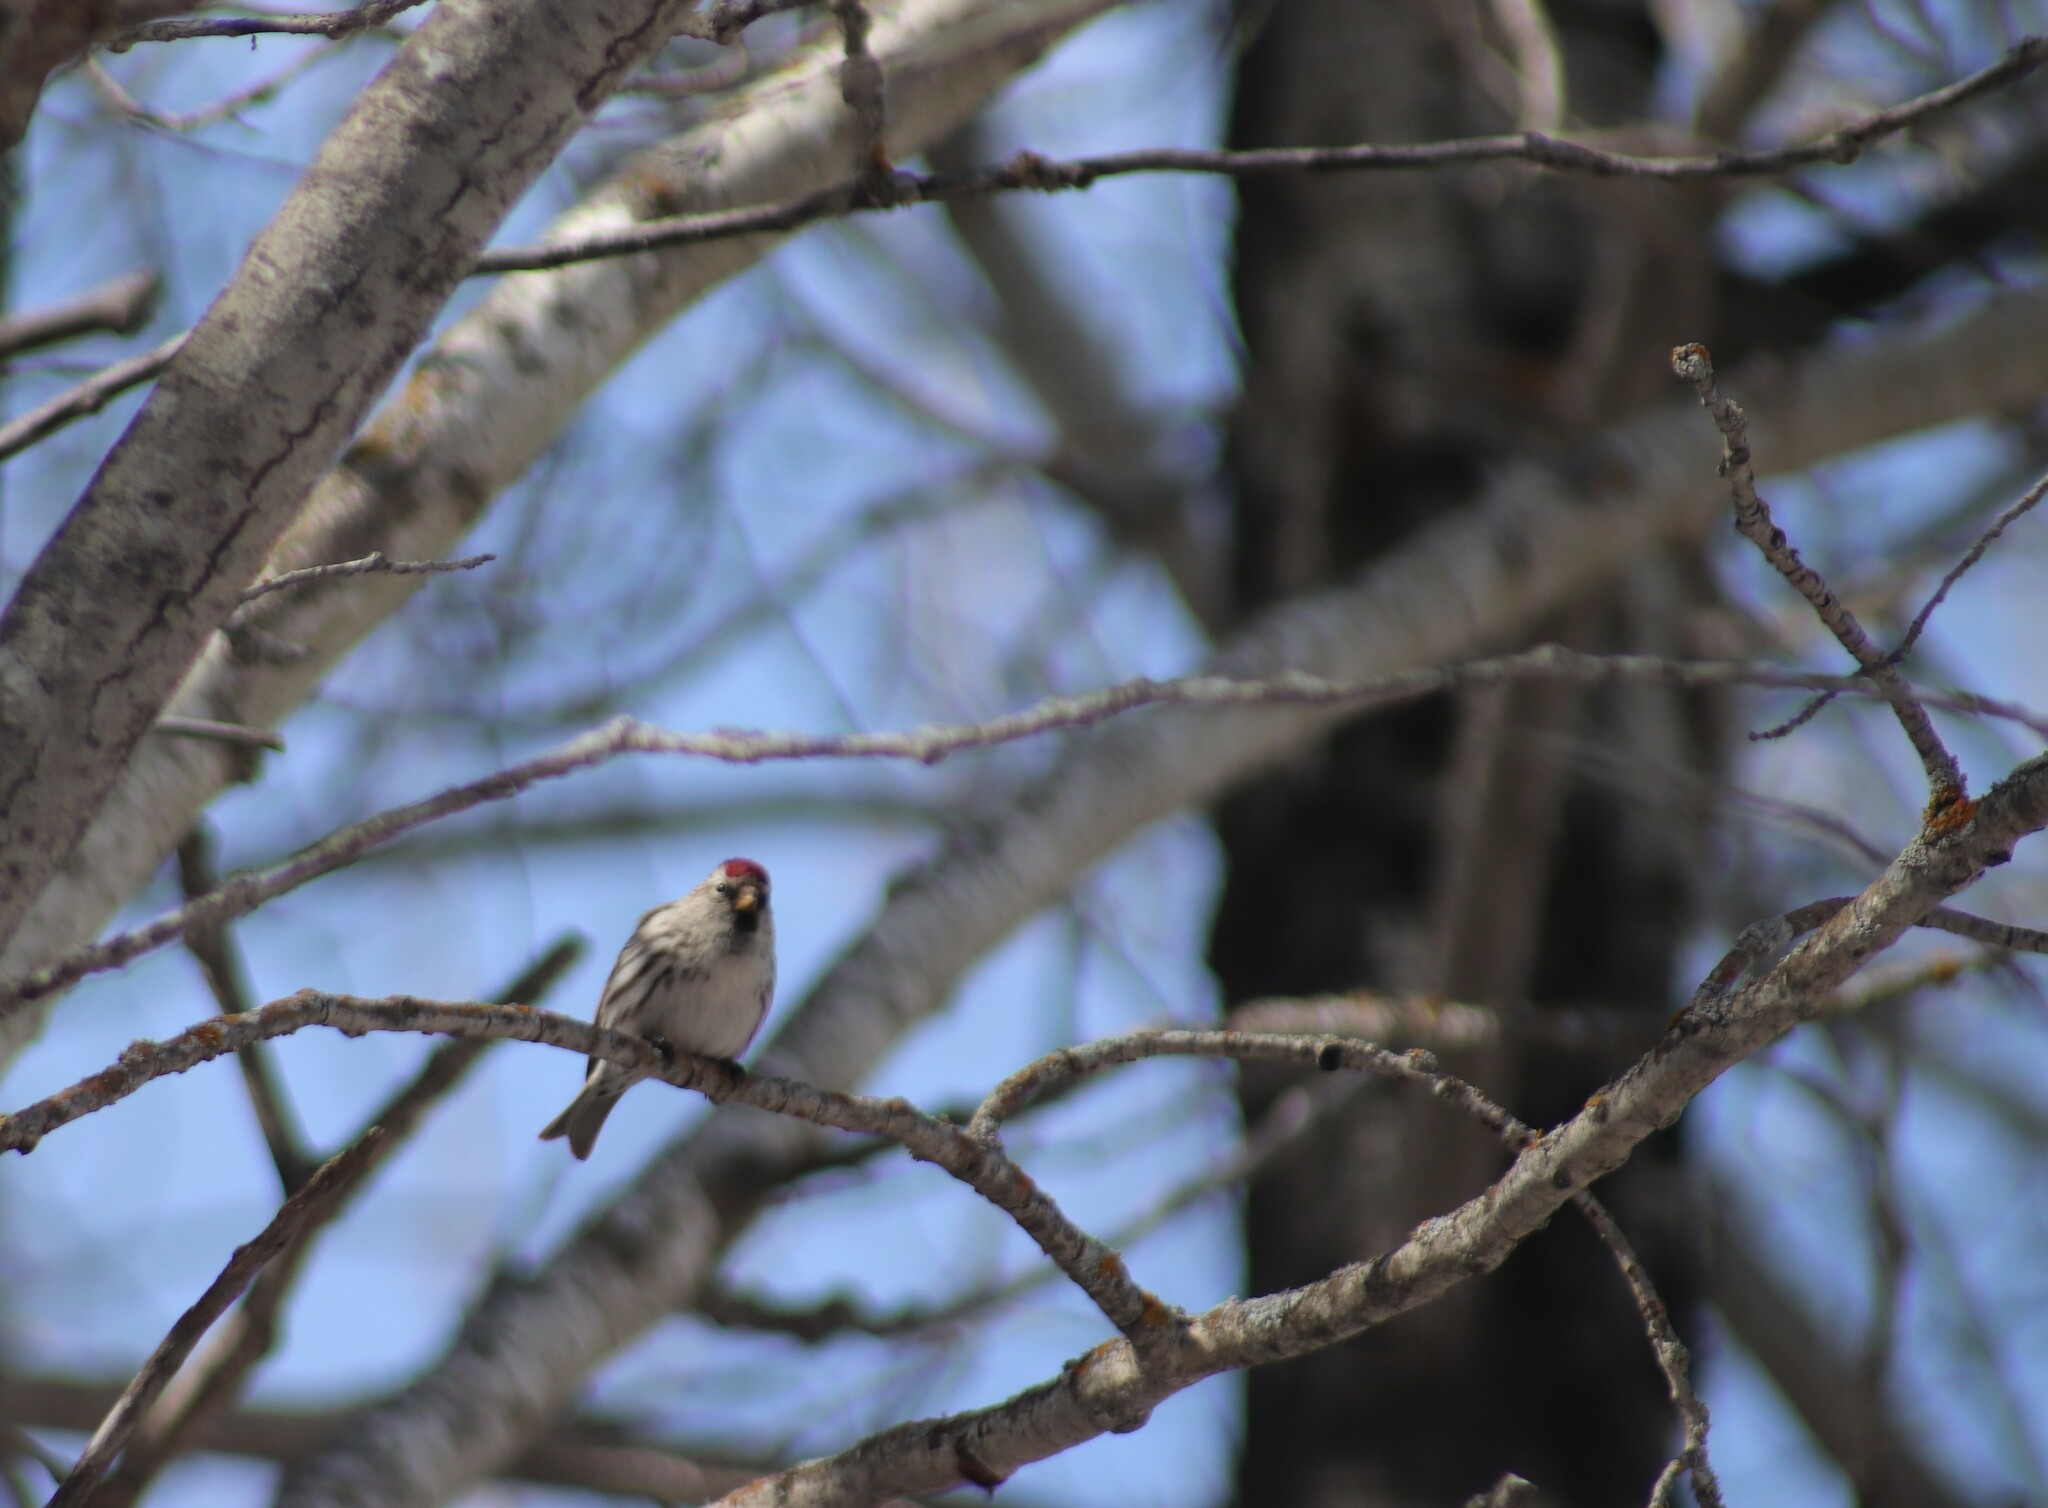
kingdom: Animalia
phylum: Chordata
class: Aves
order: Passeriformes
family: Fringillidae
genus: Acanthis
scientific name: Acanthis flammea
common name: Common redpoll
